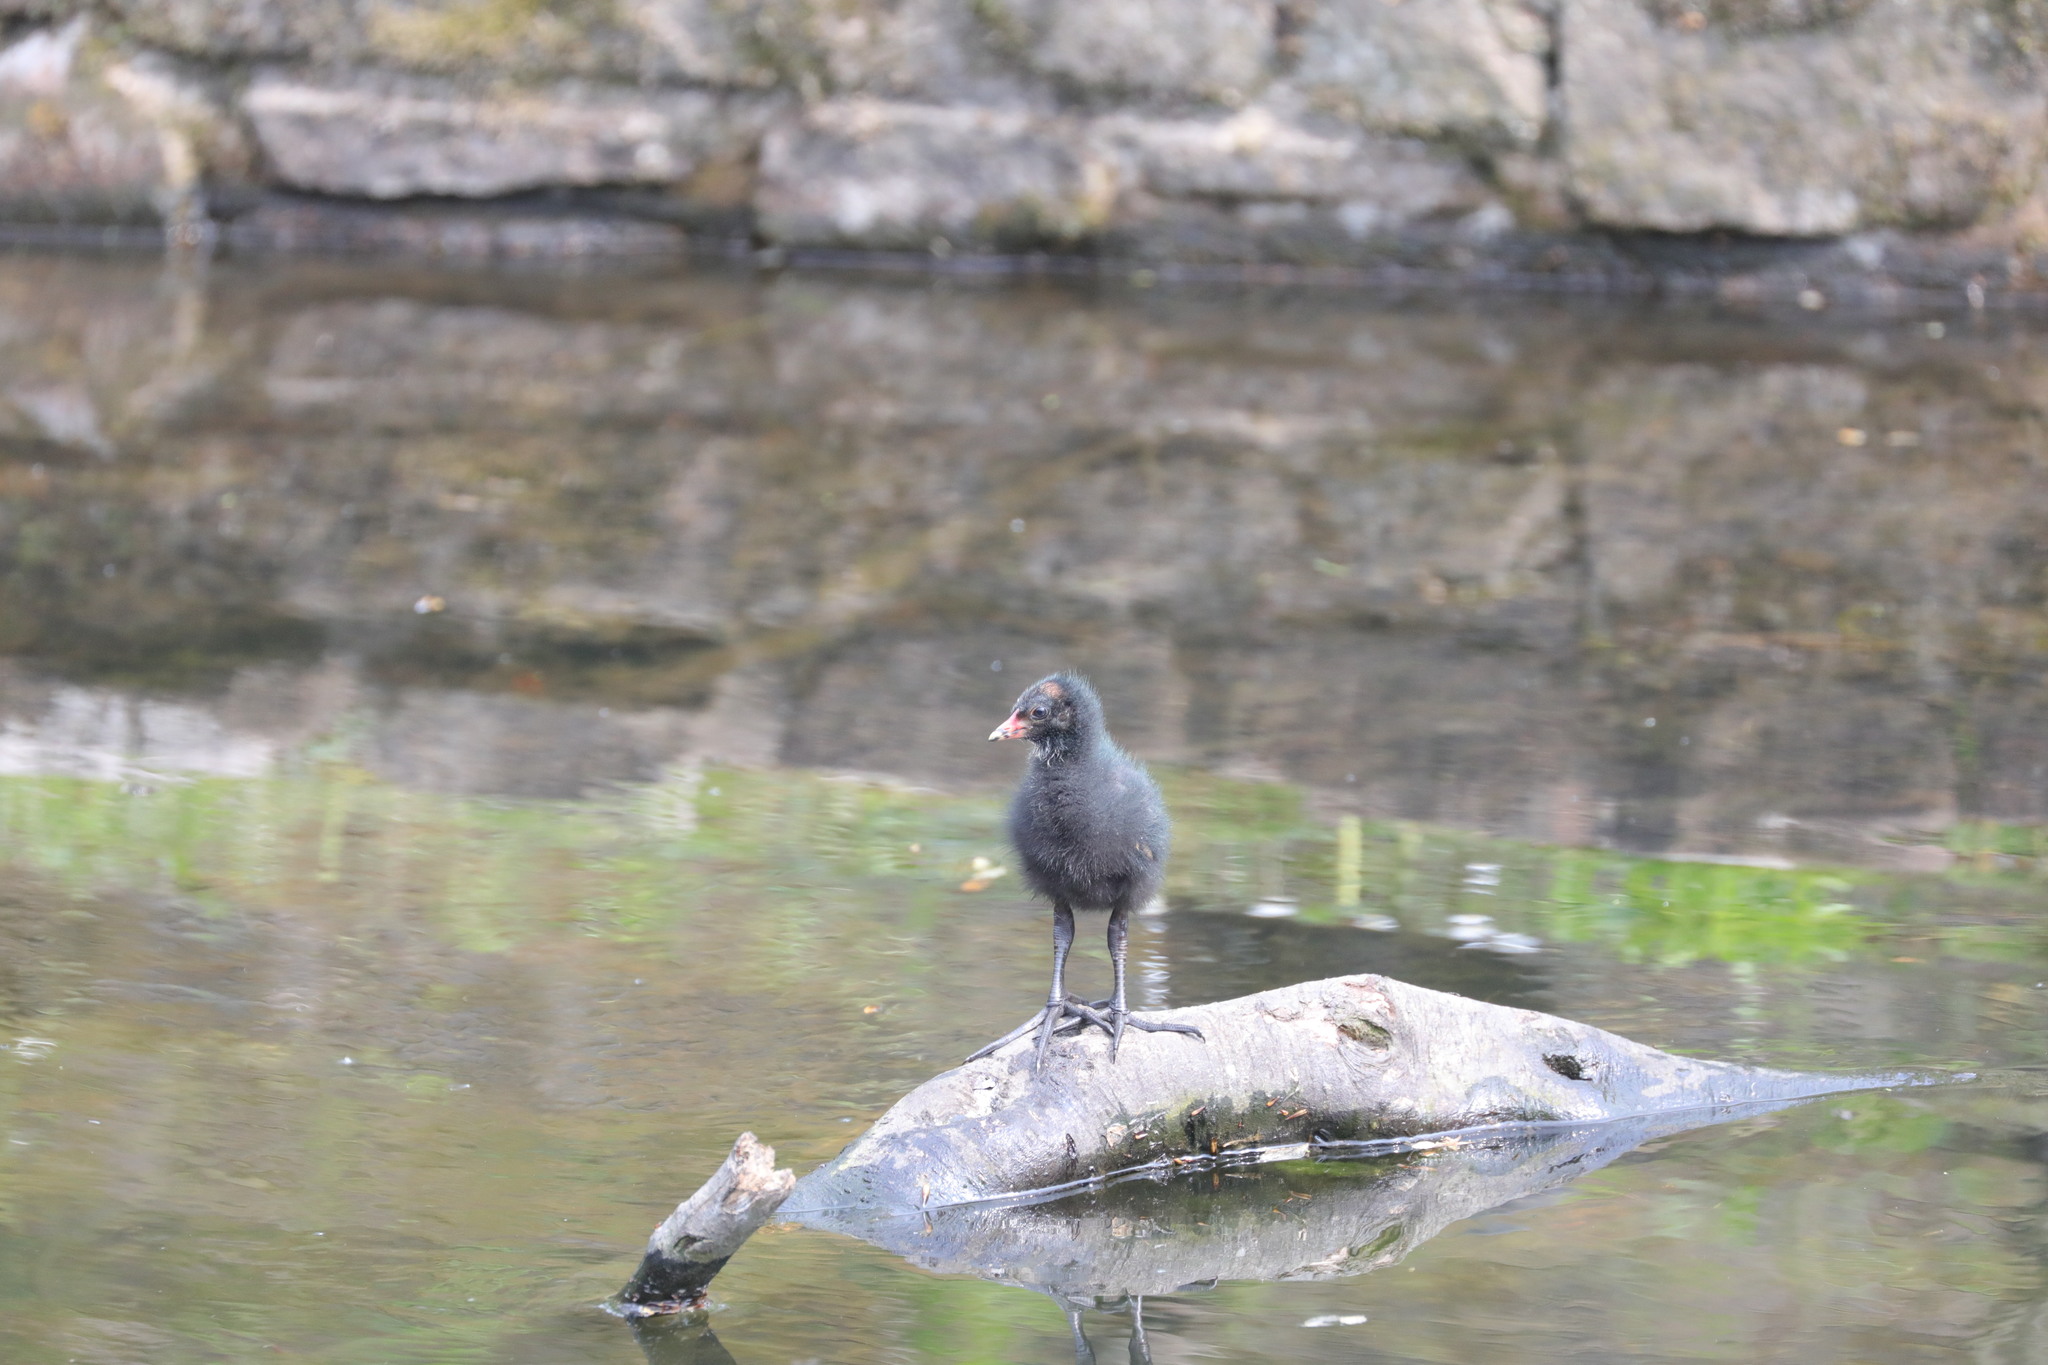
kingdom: Animalia
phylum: Chordata
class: Aves
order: Gruiformes
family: Rallidae
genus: Gallinula
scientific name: Gallinula chloropus
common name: Common moorhen
